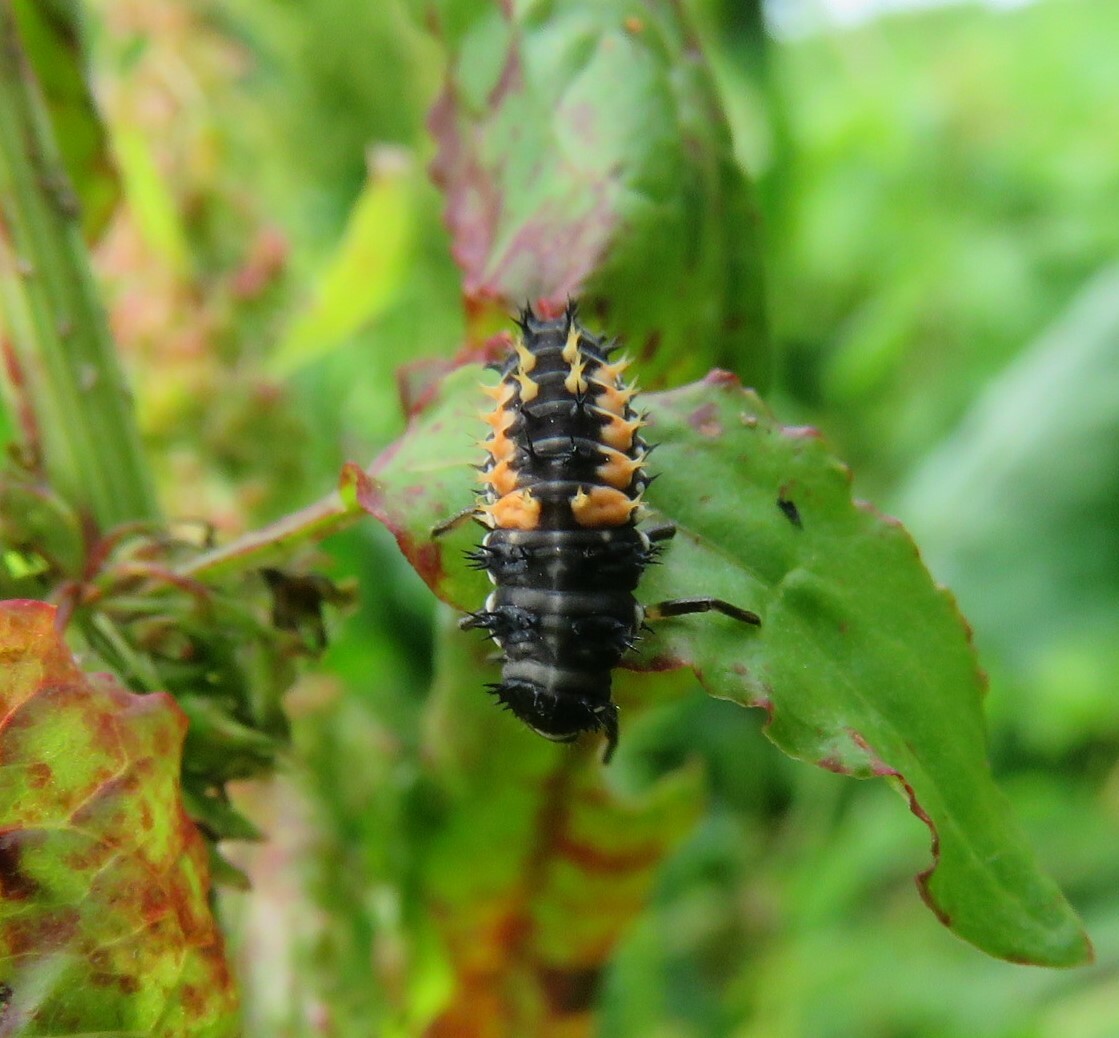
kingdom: Animalia
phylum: Arthropoda
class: Insecta
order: Coleoptera
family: Coccinellidae
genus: Harmonia
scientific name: Harmonia axyridis
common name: Harlequin ladybird
